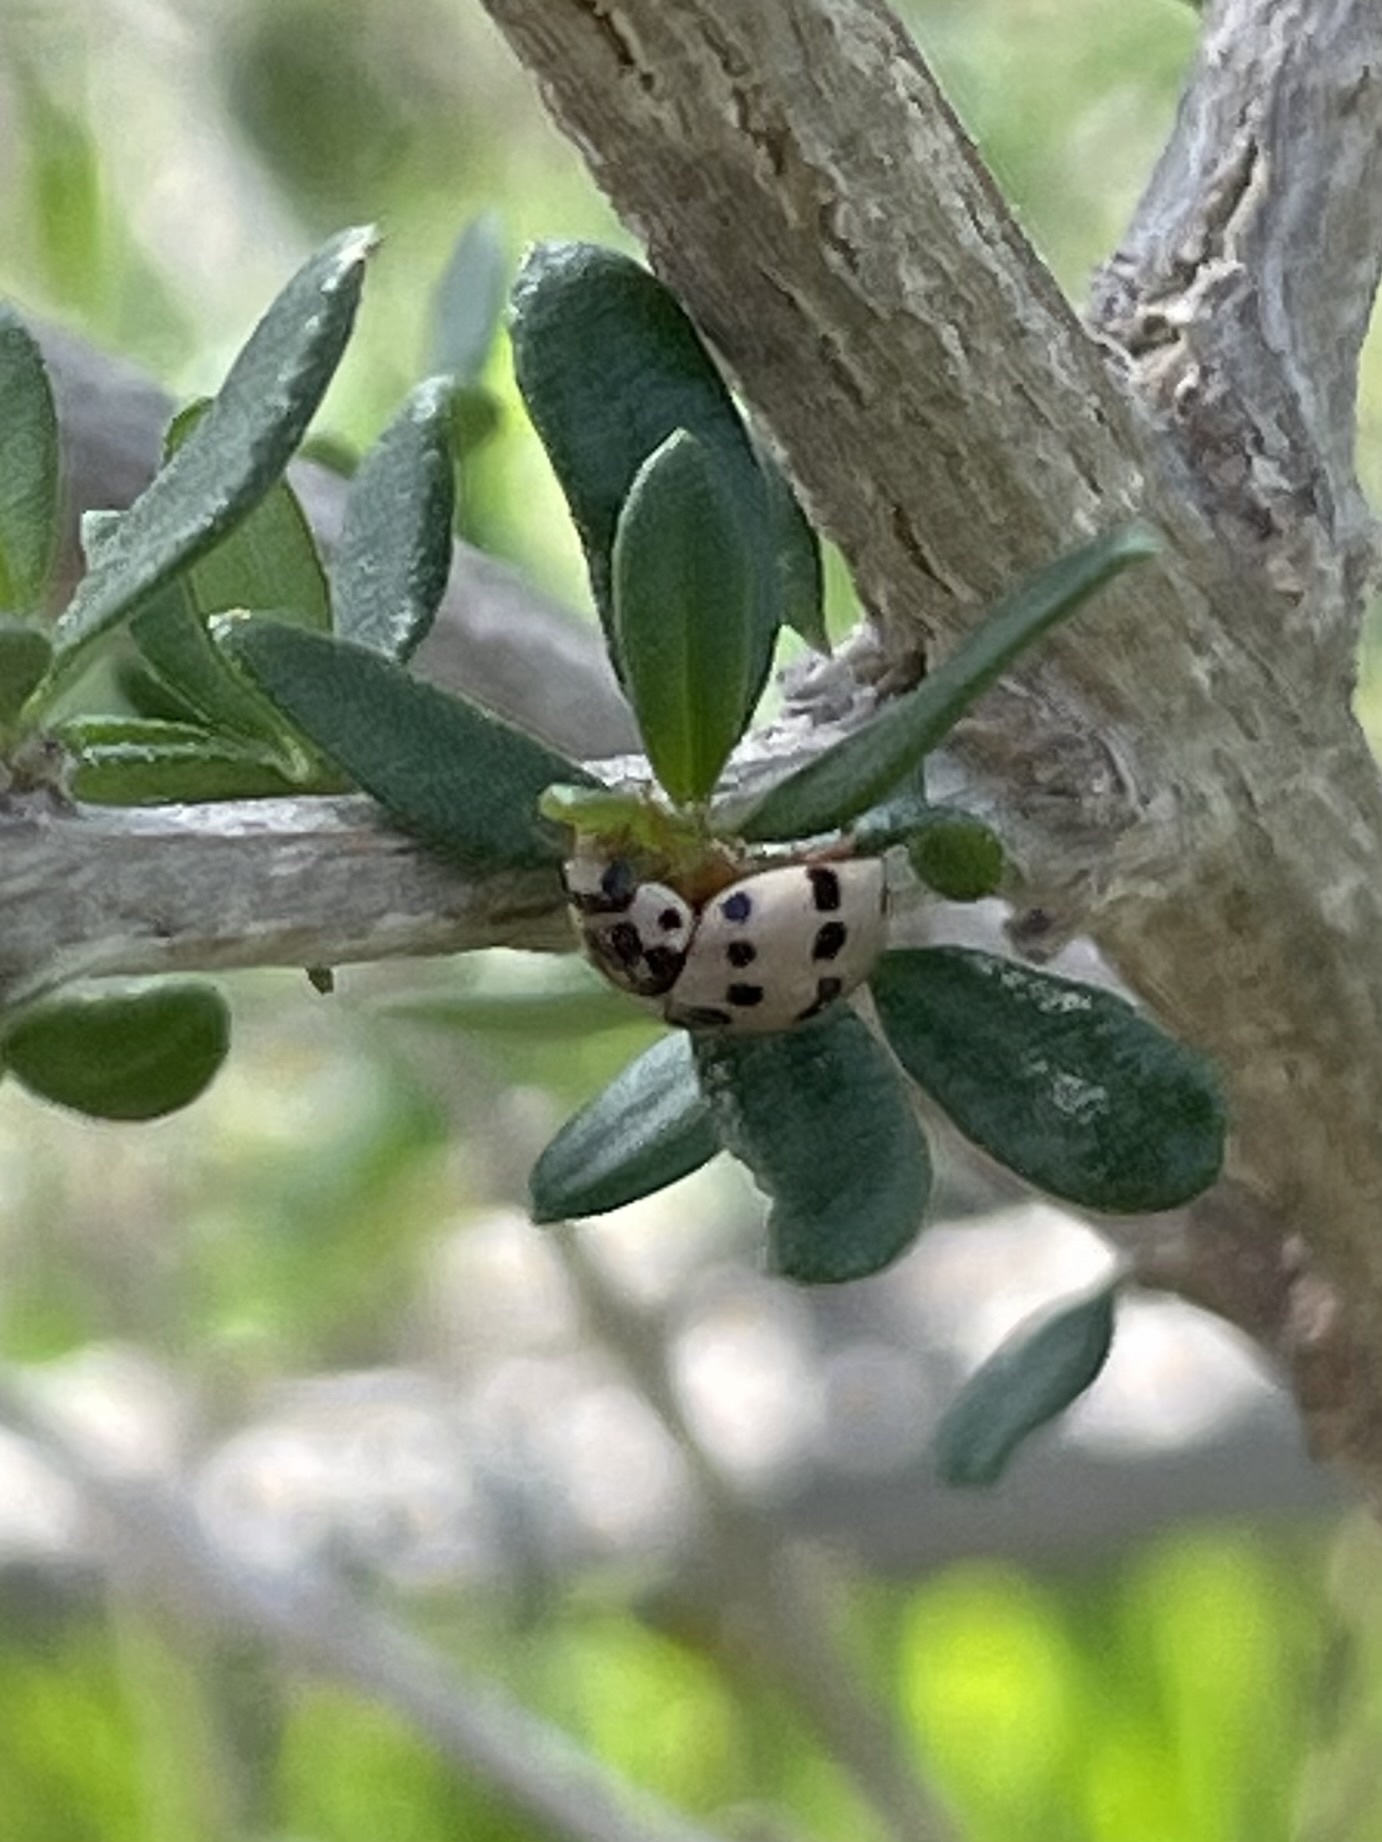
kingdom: Animalia
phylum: Arthropoda
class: Insecta
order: Coleoptera
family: Coccinellidae
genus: Olla
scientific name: Olla v-nigrum
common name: Ashy gray lady beetle
